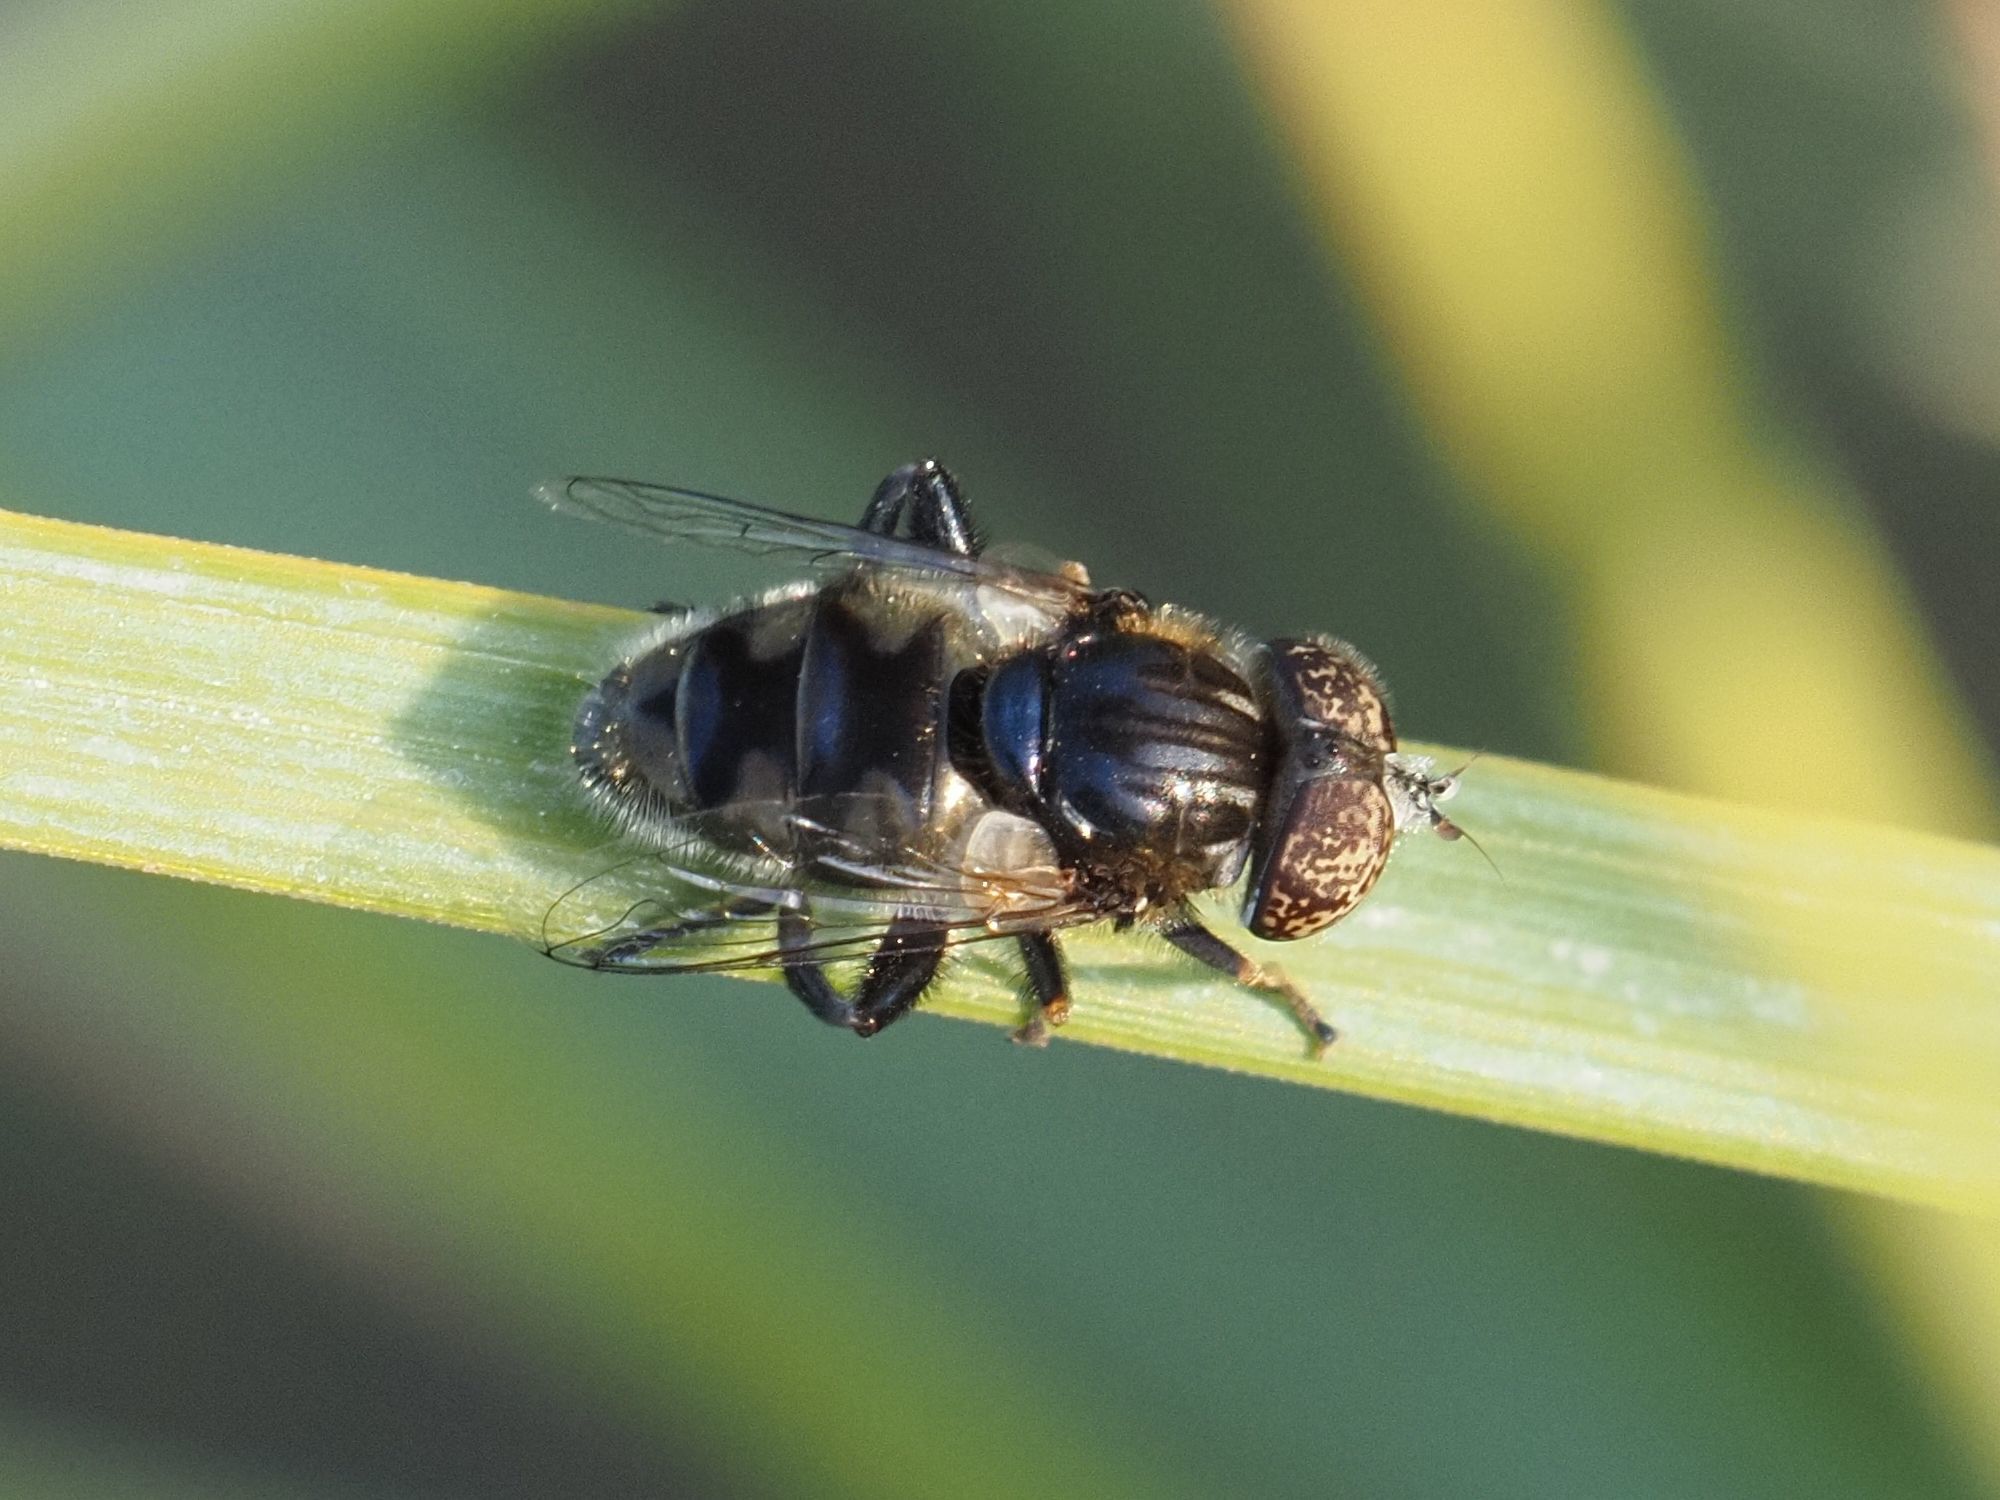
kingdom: Animalia
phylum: Arthropoda
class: Insecta
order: Diptera
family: Syrphidae
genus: Eristalinus
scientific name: Eristalinus sepulchralis
